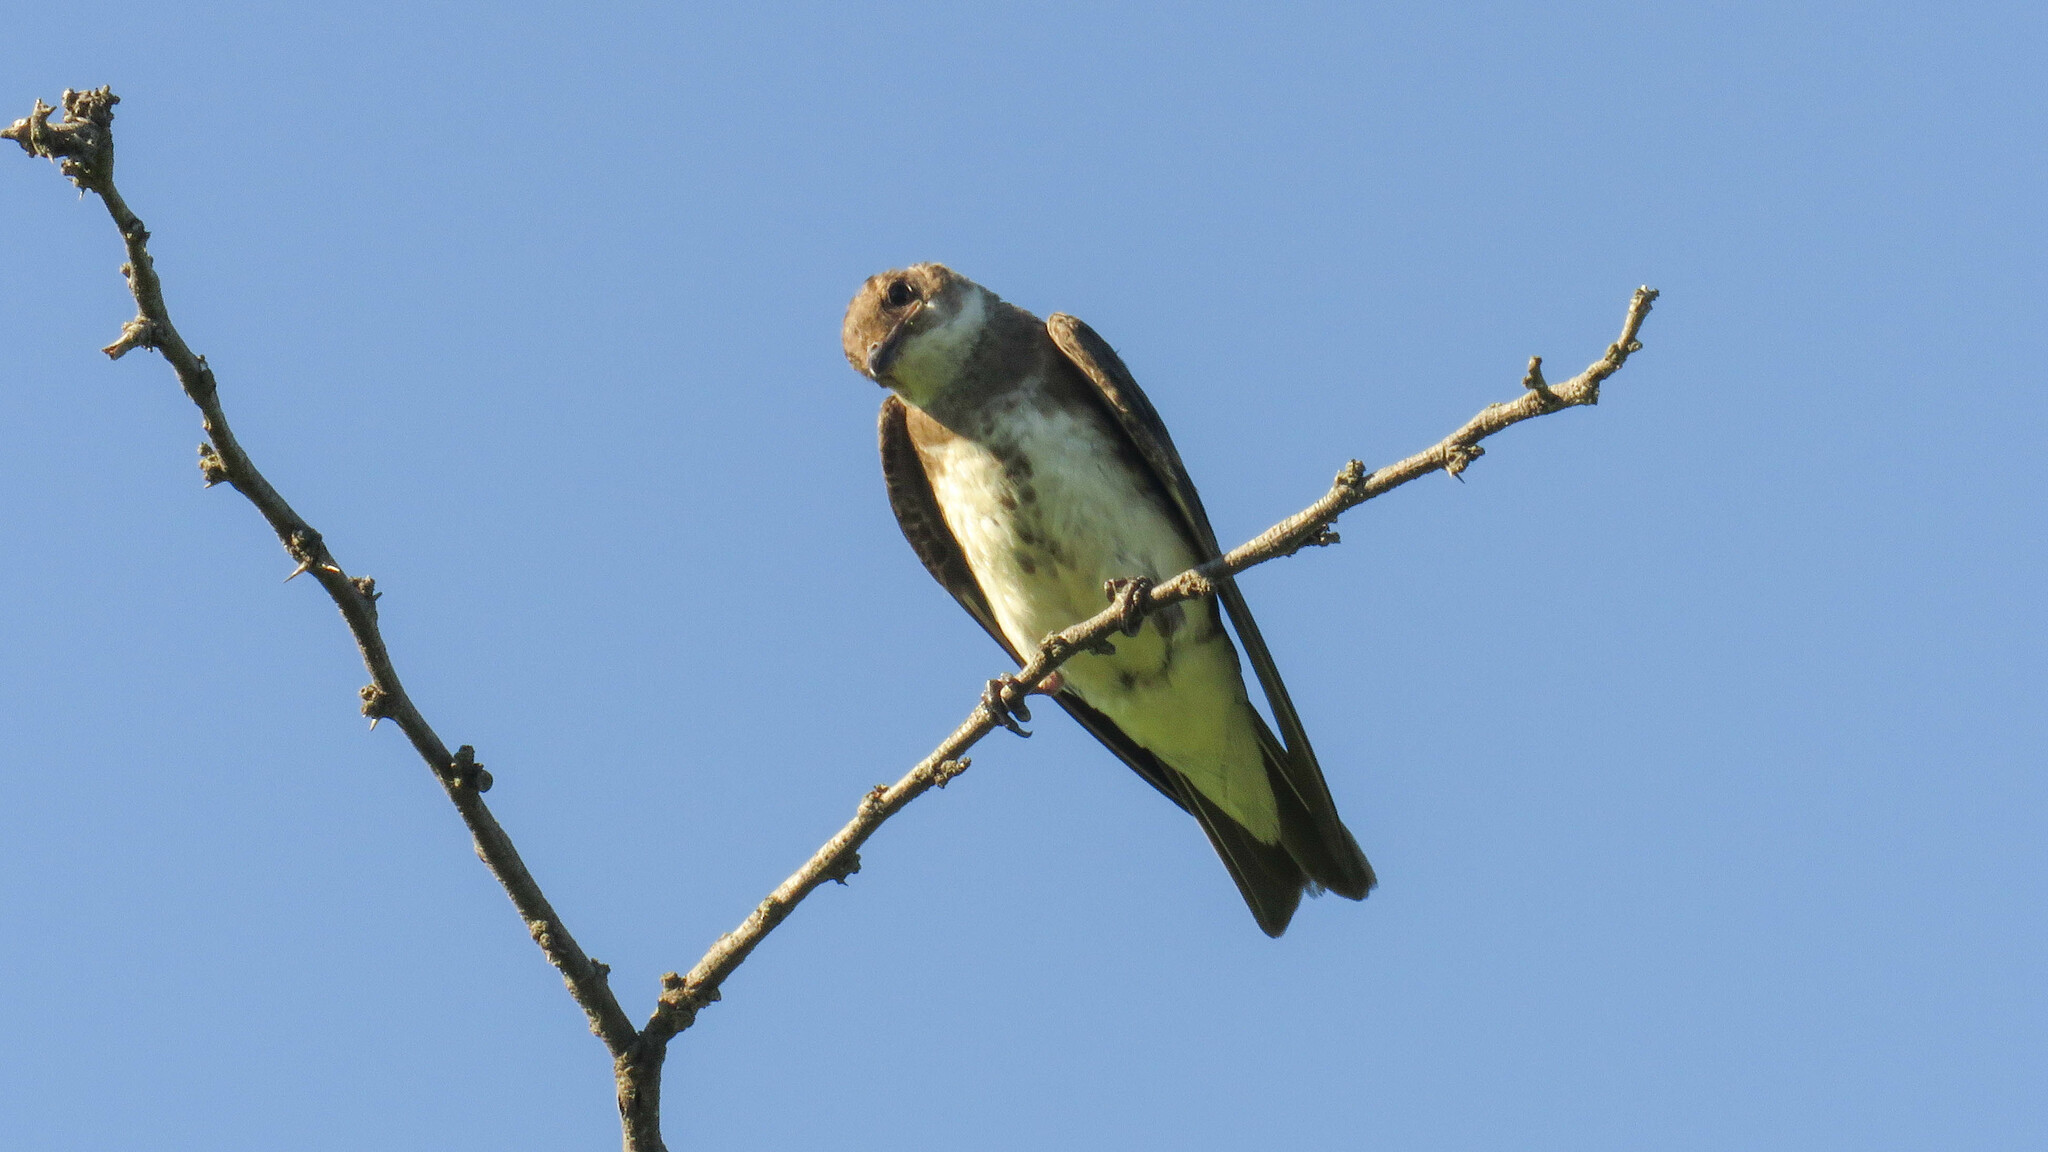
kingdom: Animalia
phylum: Chordata
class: Aves
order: Passeriformes
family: Hirundinidae
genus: Progne
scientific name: Progne tapera
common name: Brown-chested martin
